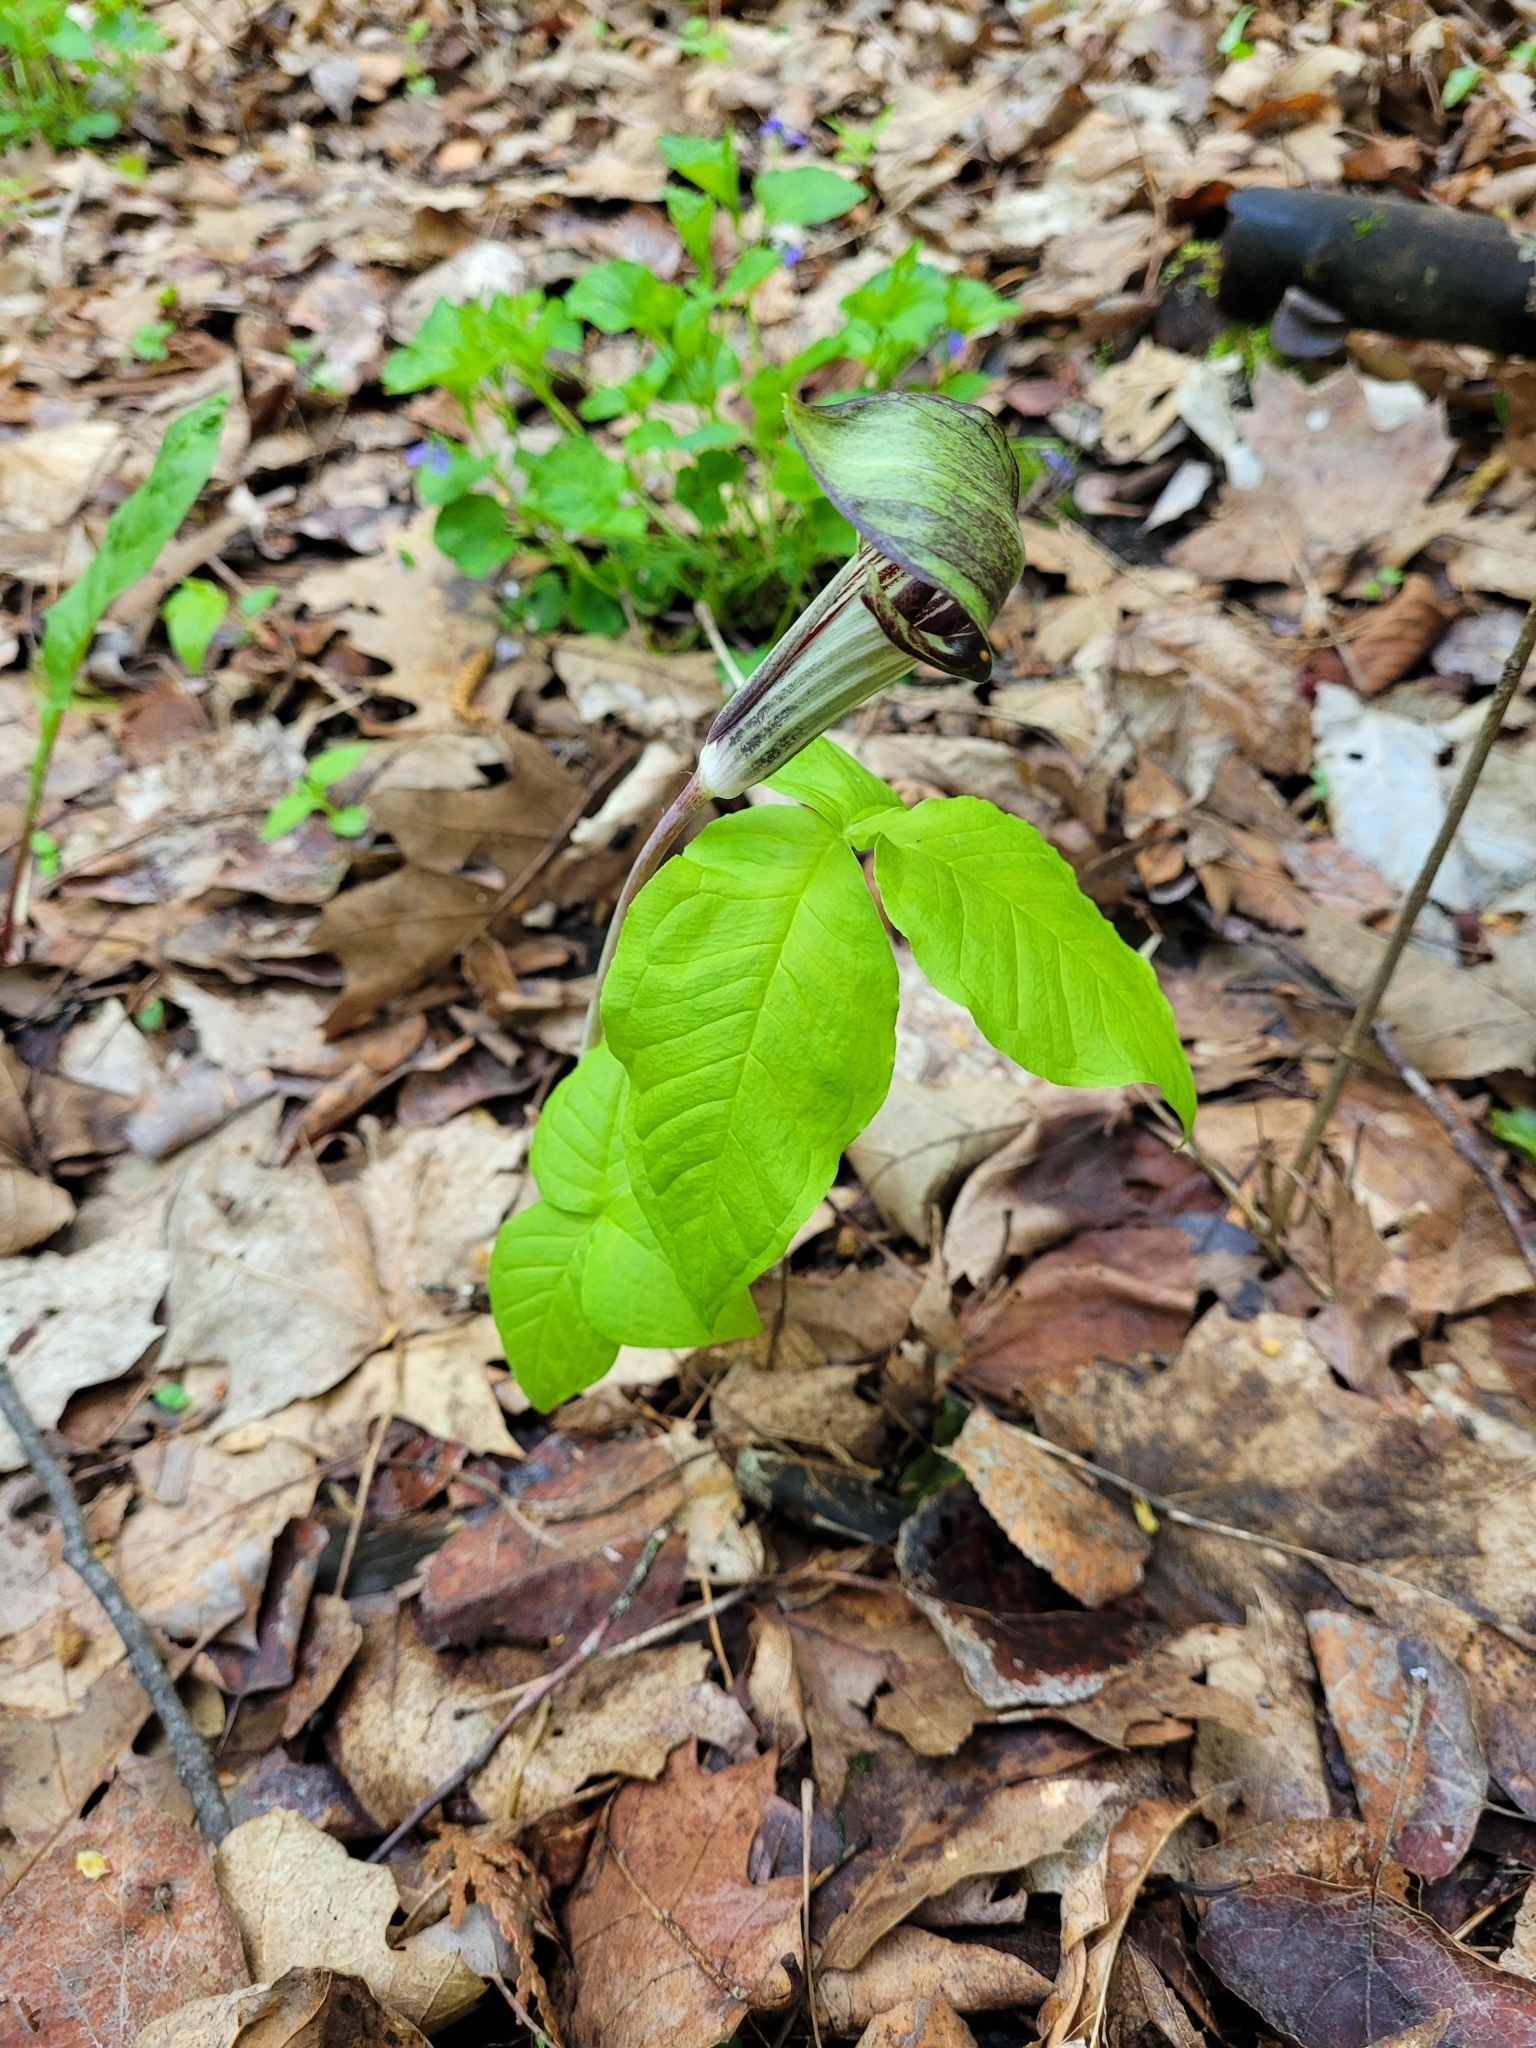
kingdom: Plantae
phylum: Tracheophyta
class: Liliopsida
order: Alismatales
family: Araceae
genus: Arisaema
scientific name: Arisaema triphyllum
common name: Jack-in-the-pulpit
